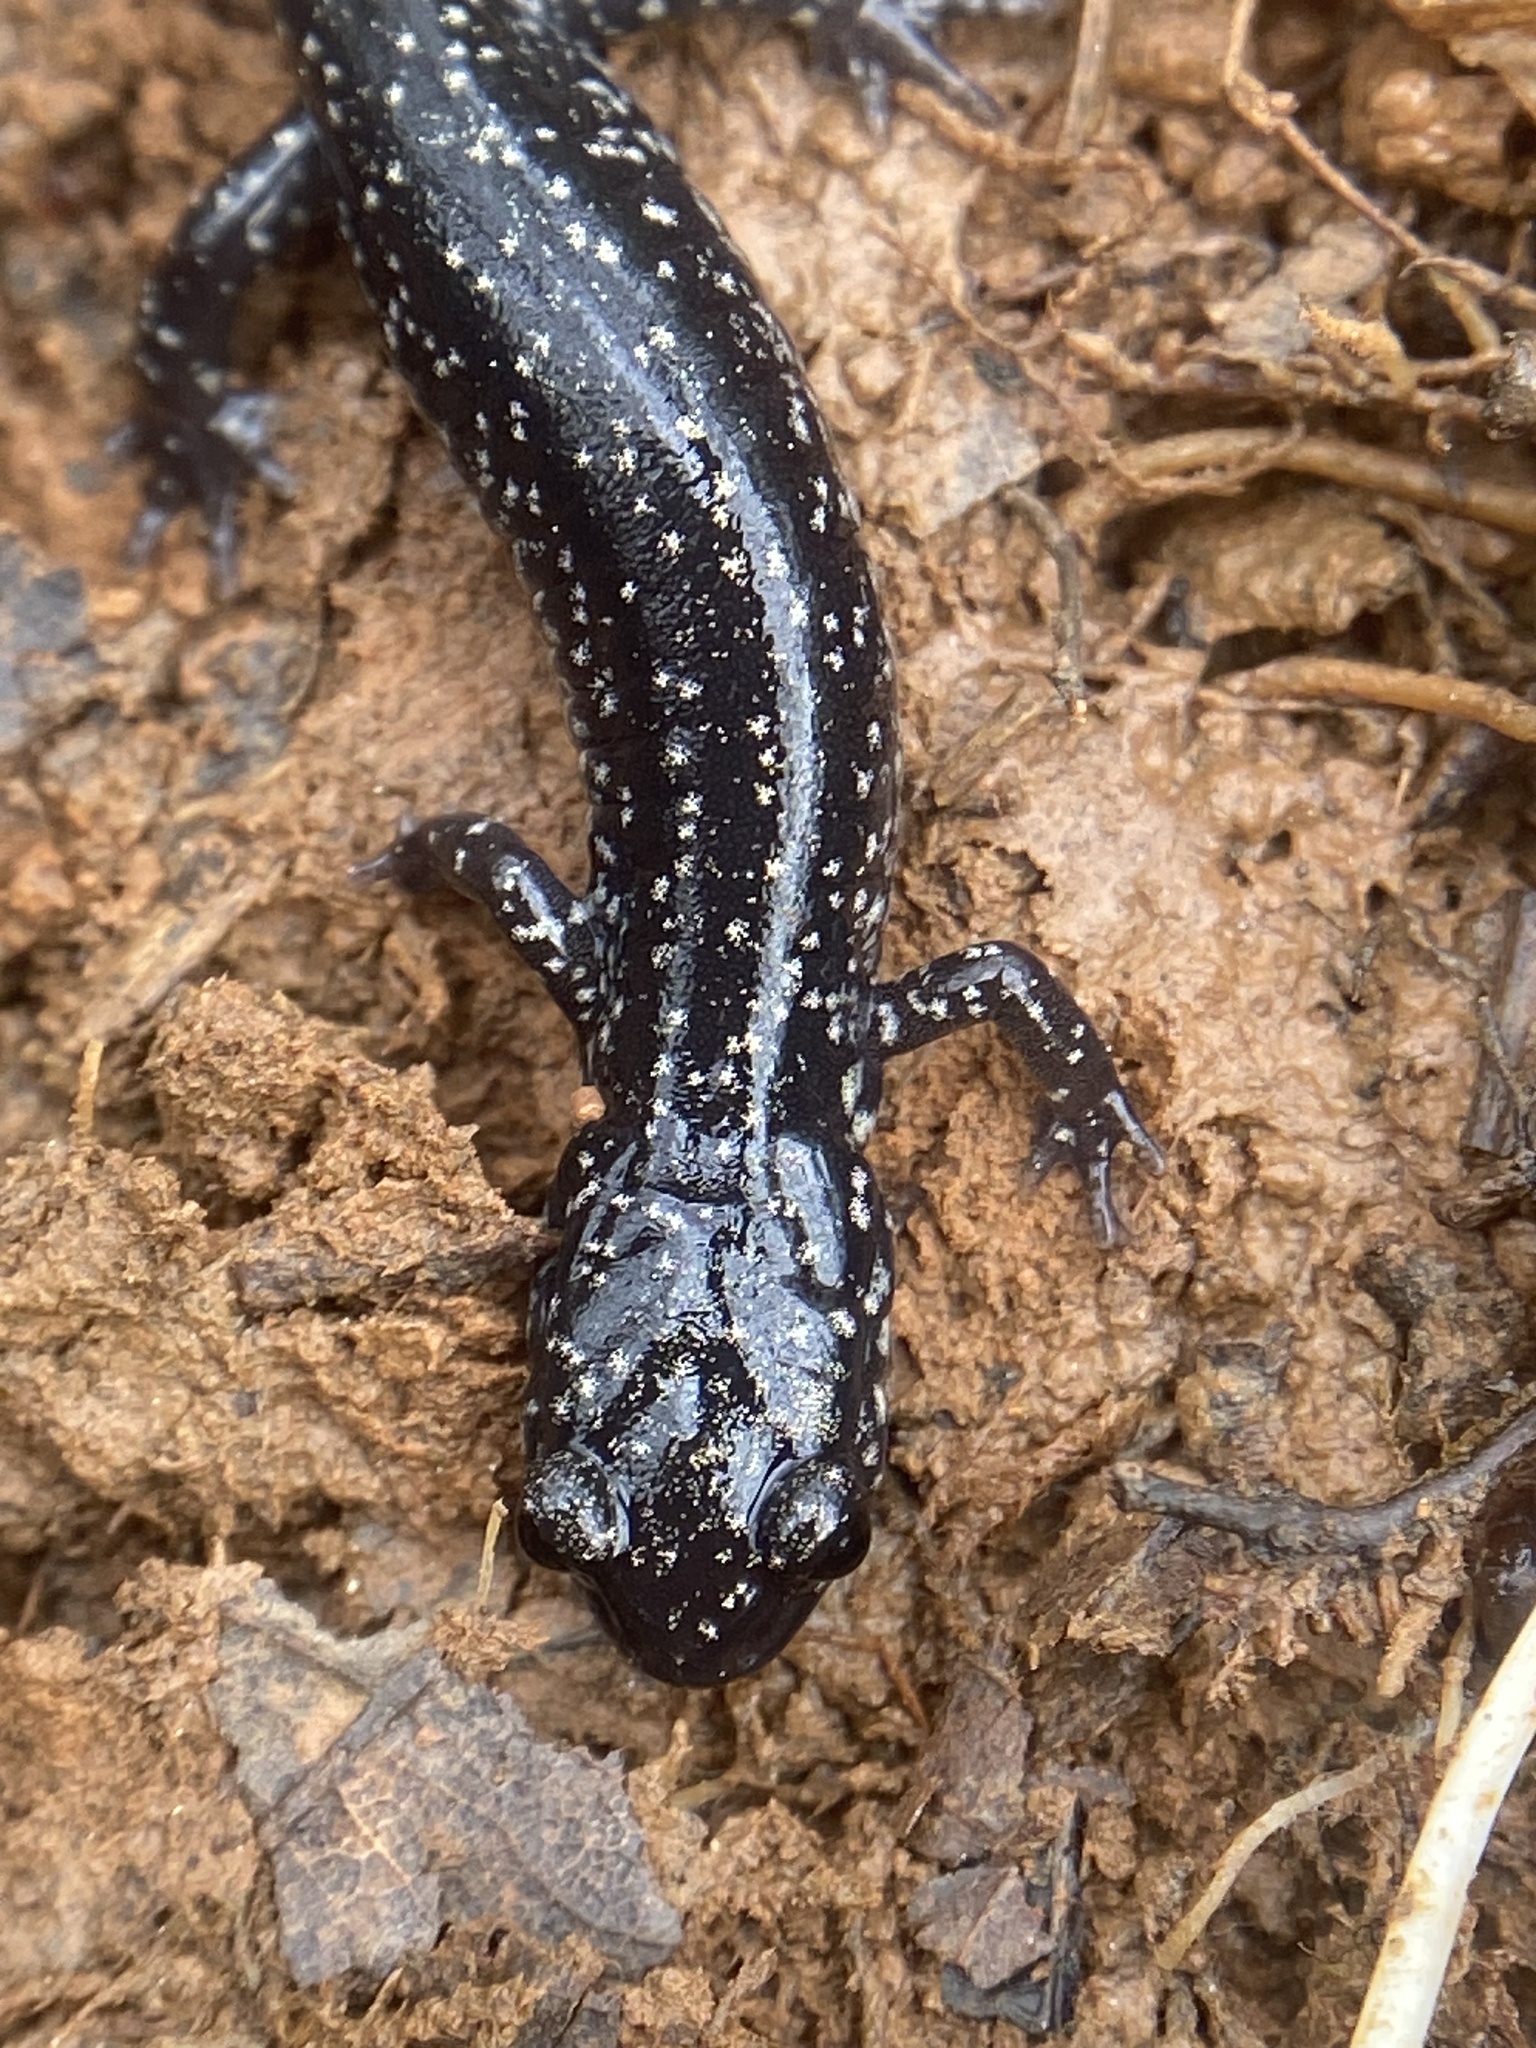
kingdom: Animalia
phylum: Chordata
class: Amphibia
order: Caudata
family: Plethodontidae
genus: Plethodon
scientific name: Plethodon glutinosus
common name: Northern slimy salamander
